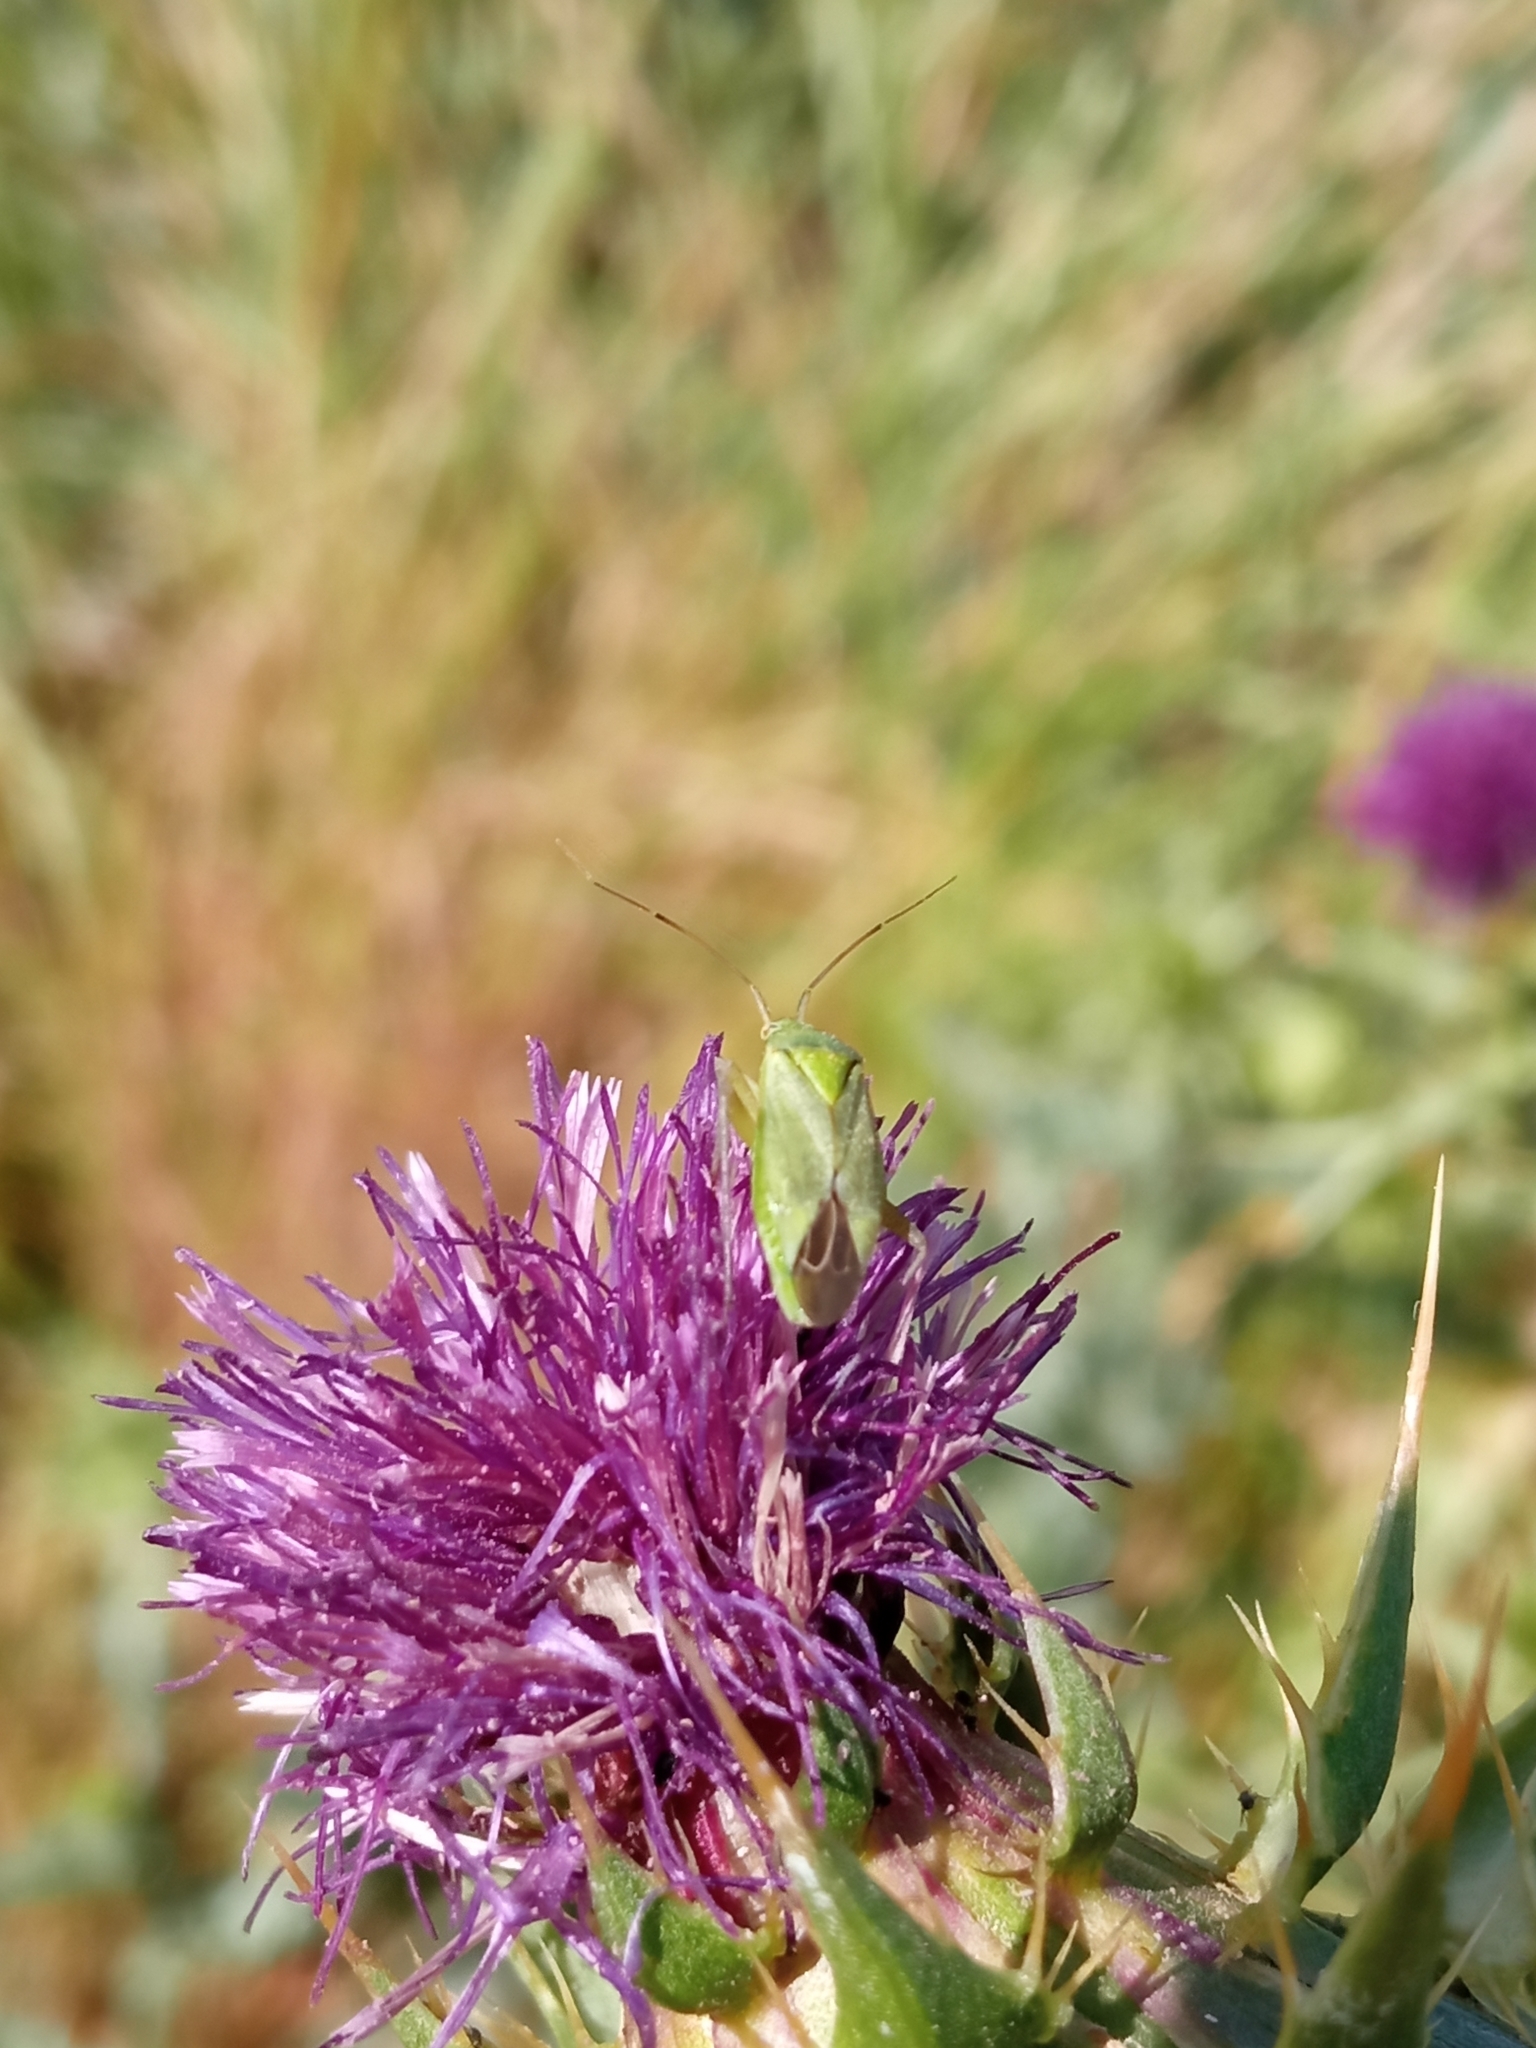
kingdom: Animalia
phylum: Arthropoda
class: Insecta
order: Hemiptera
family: Miridae
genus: Closterotomus
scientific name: Closterotomus norvegicus
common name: Plant bug
